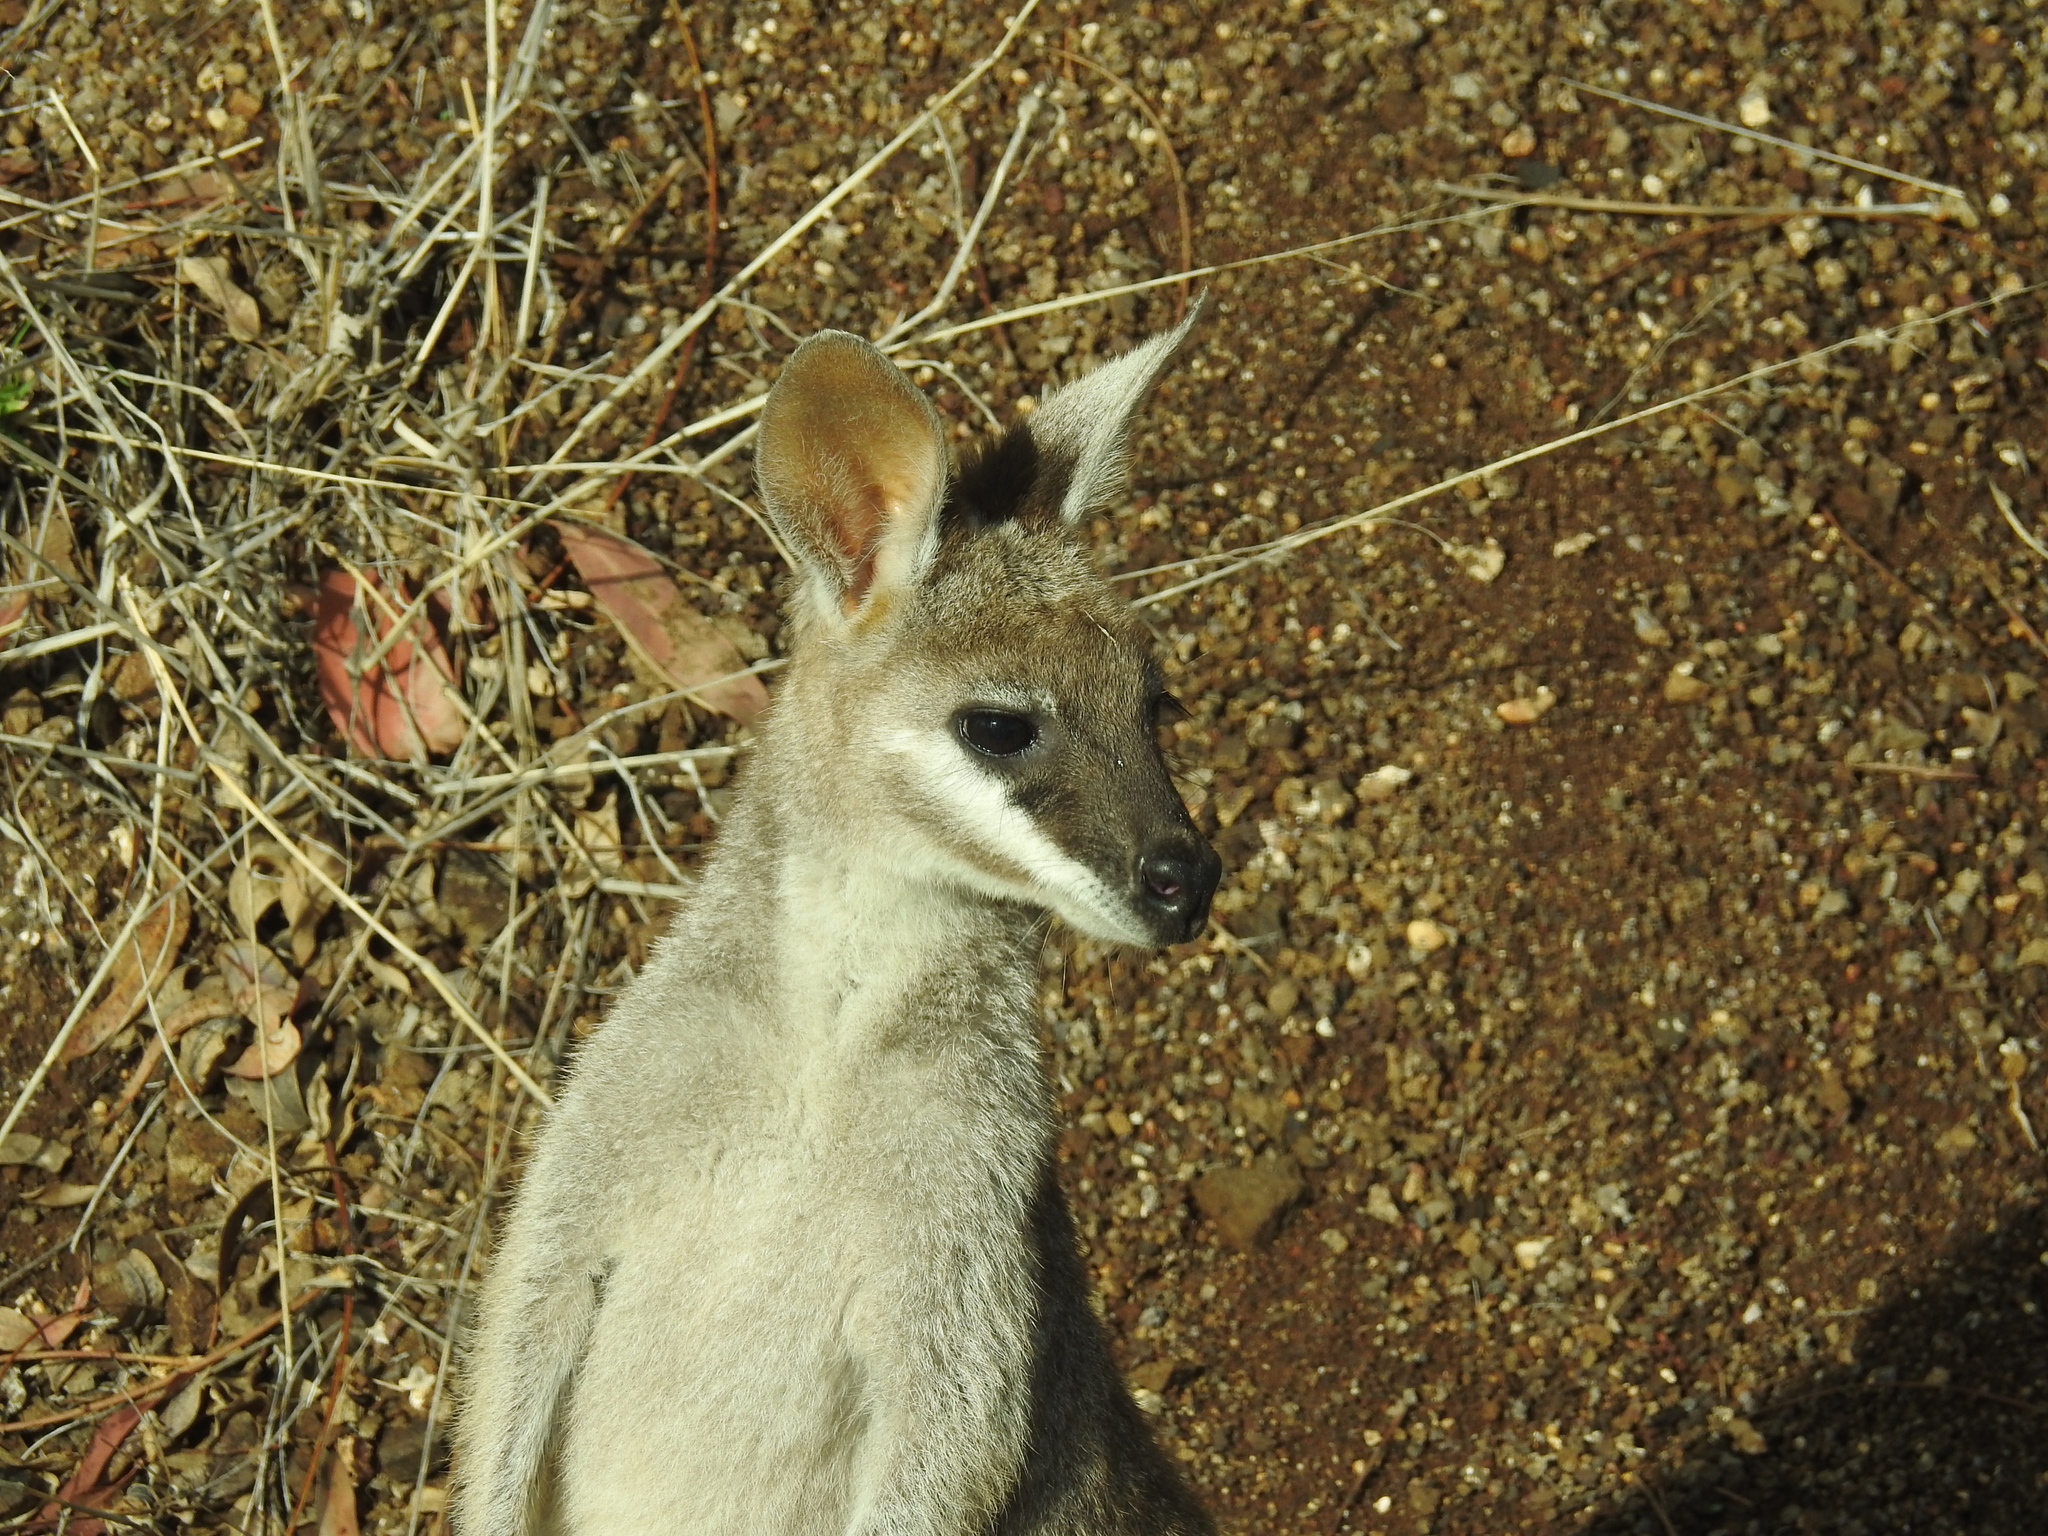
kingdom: Animalia
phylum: Chordata
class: Mammalia
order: Diprotodontia
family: Macropodidae
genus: Notamacropus
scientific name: Notamacropus parryi
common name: Whip-tailed wallaby
